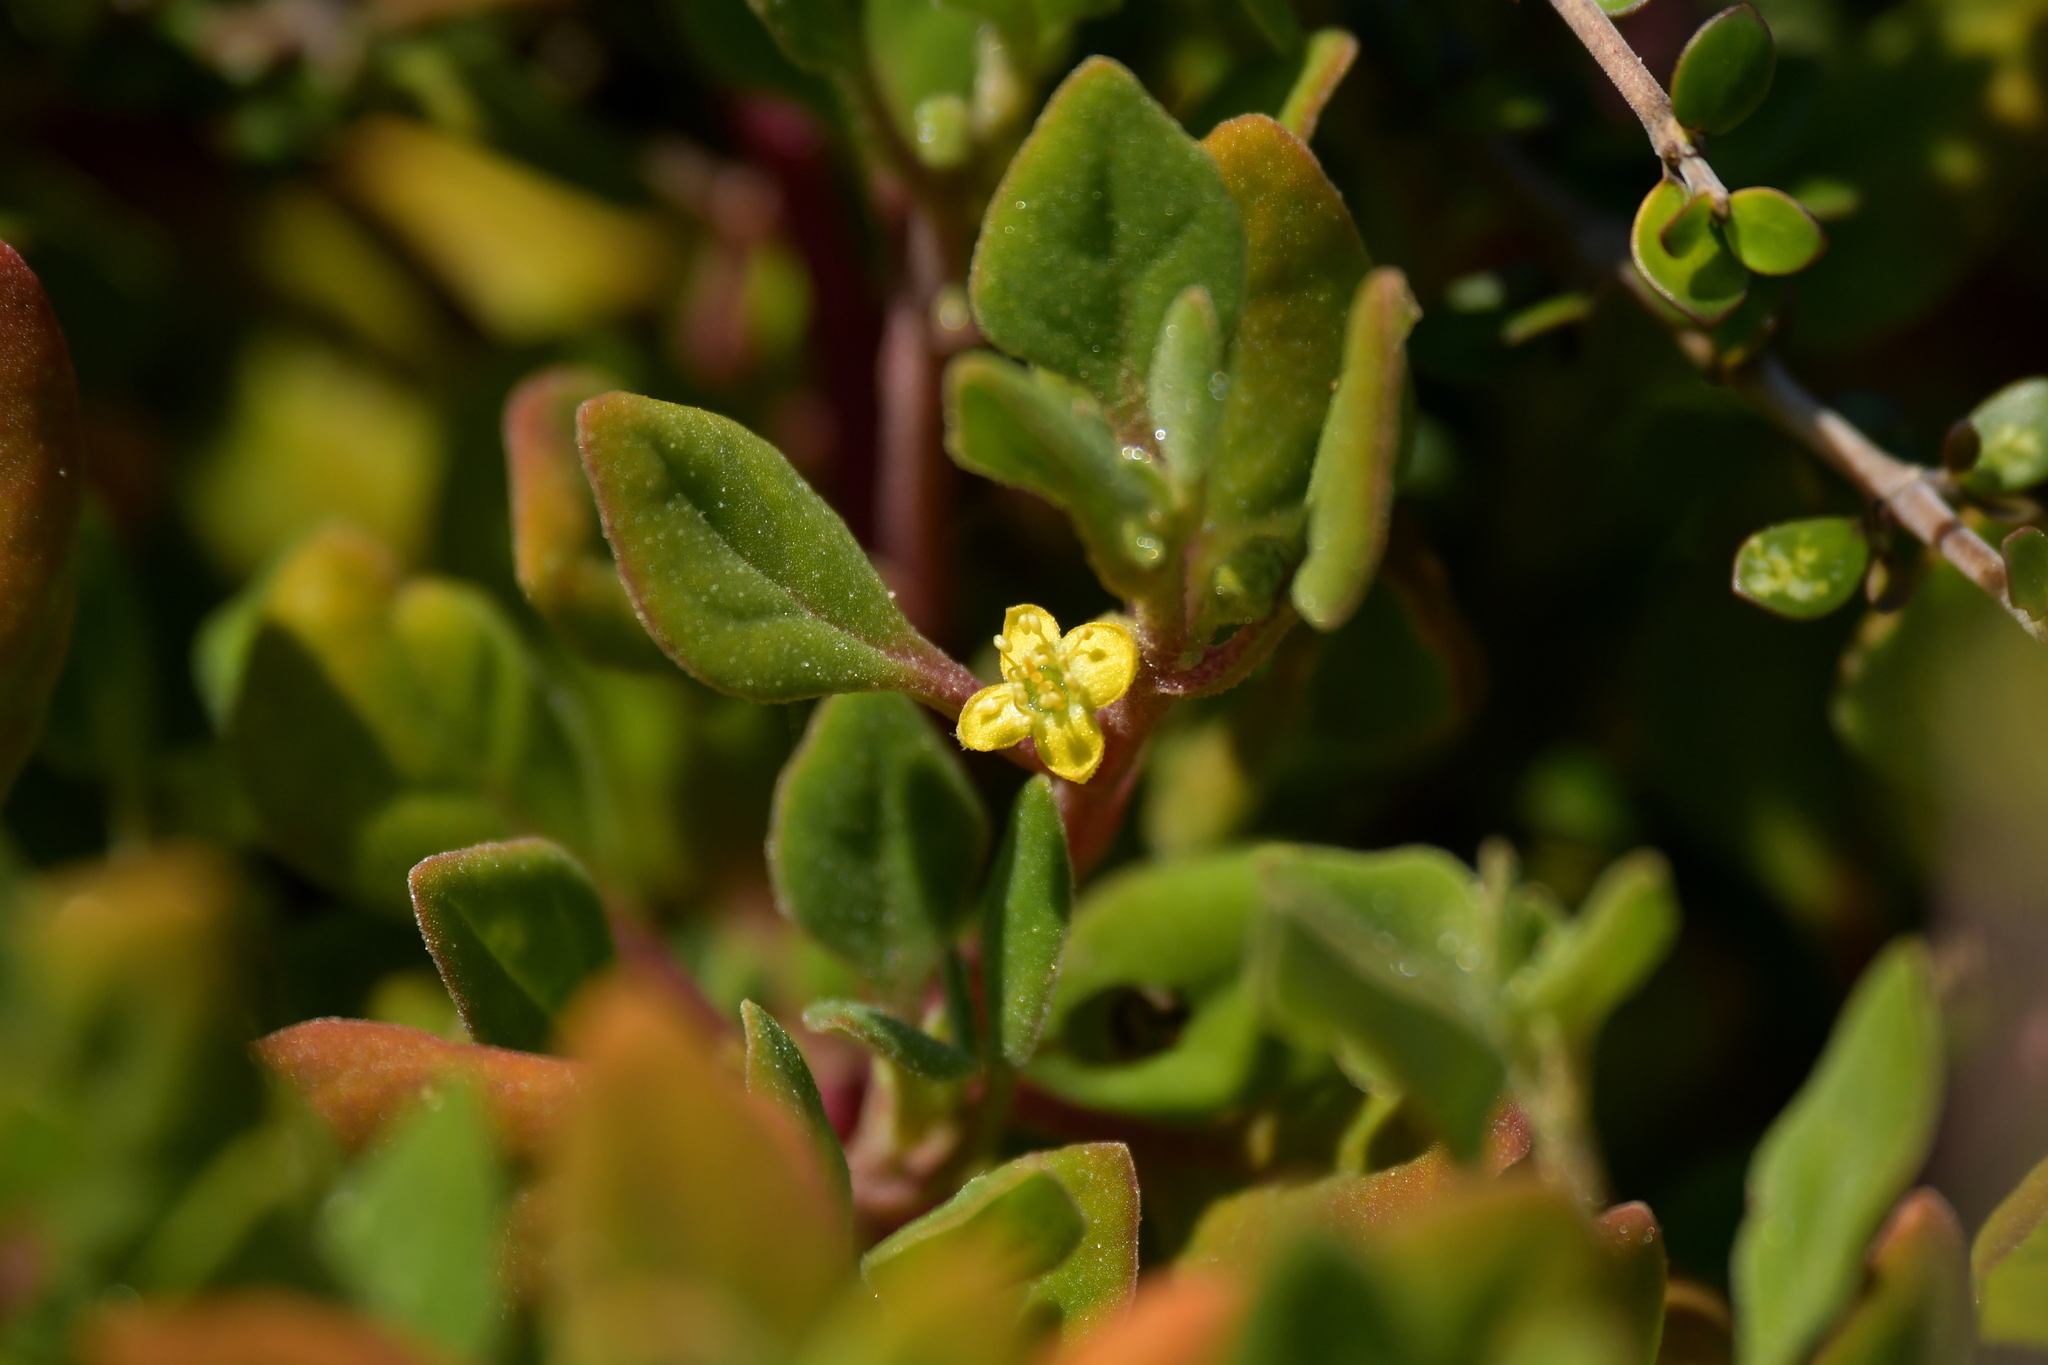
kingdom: Plantae
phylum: Tracheophyta
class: Magnoliopsida
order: Caryophyllales
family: Aizoaceae
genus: Tetragonia
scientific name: Tetragonia implexicoma
